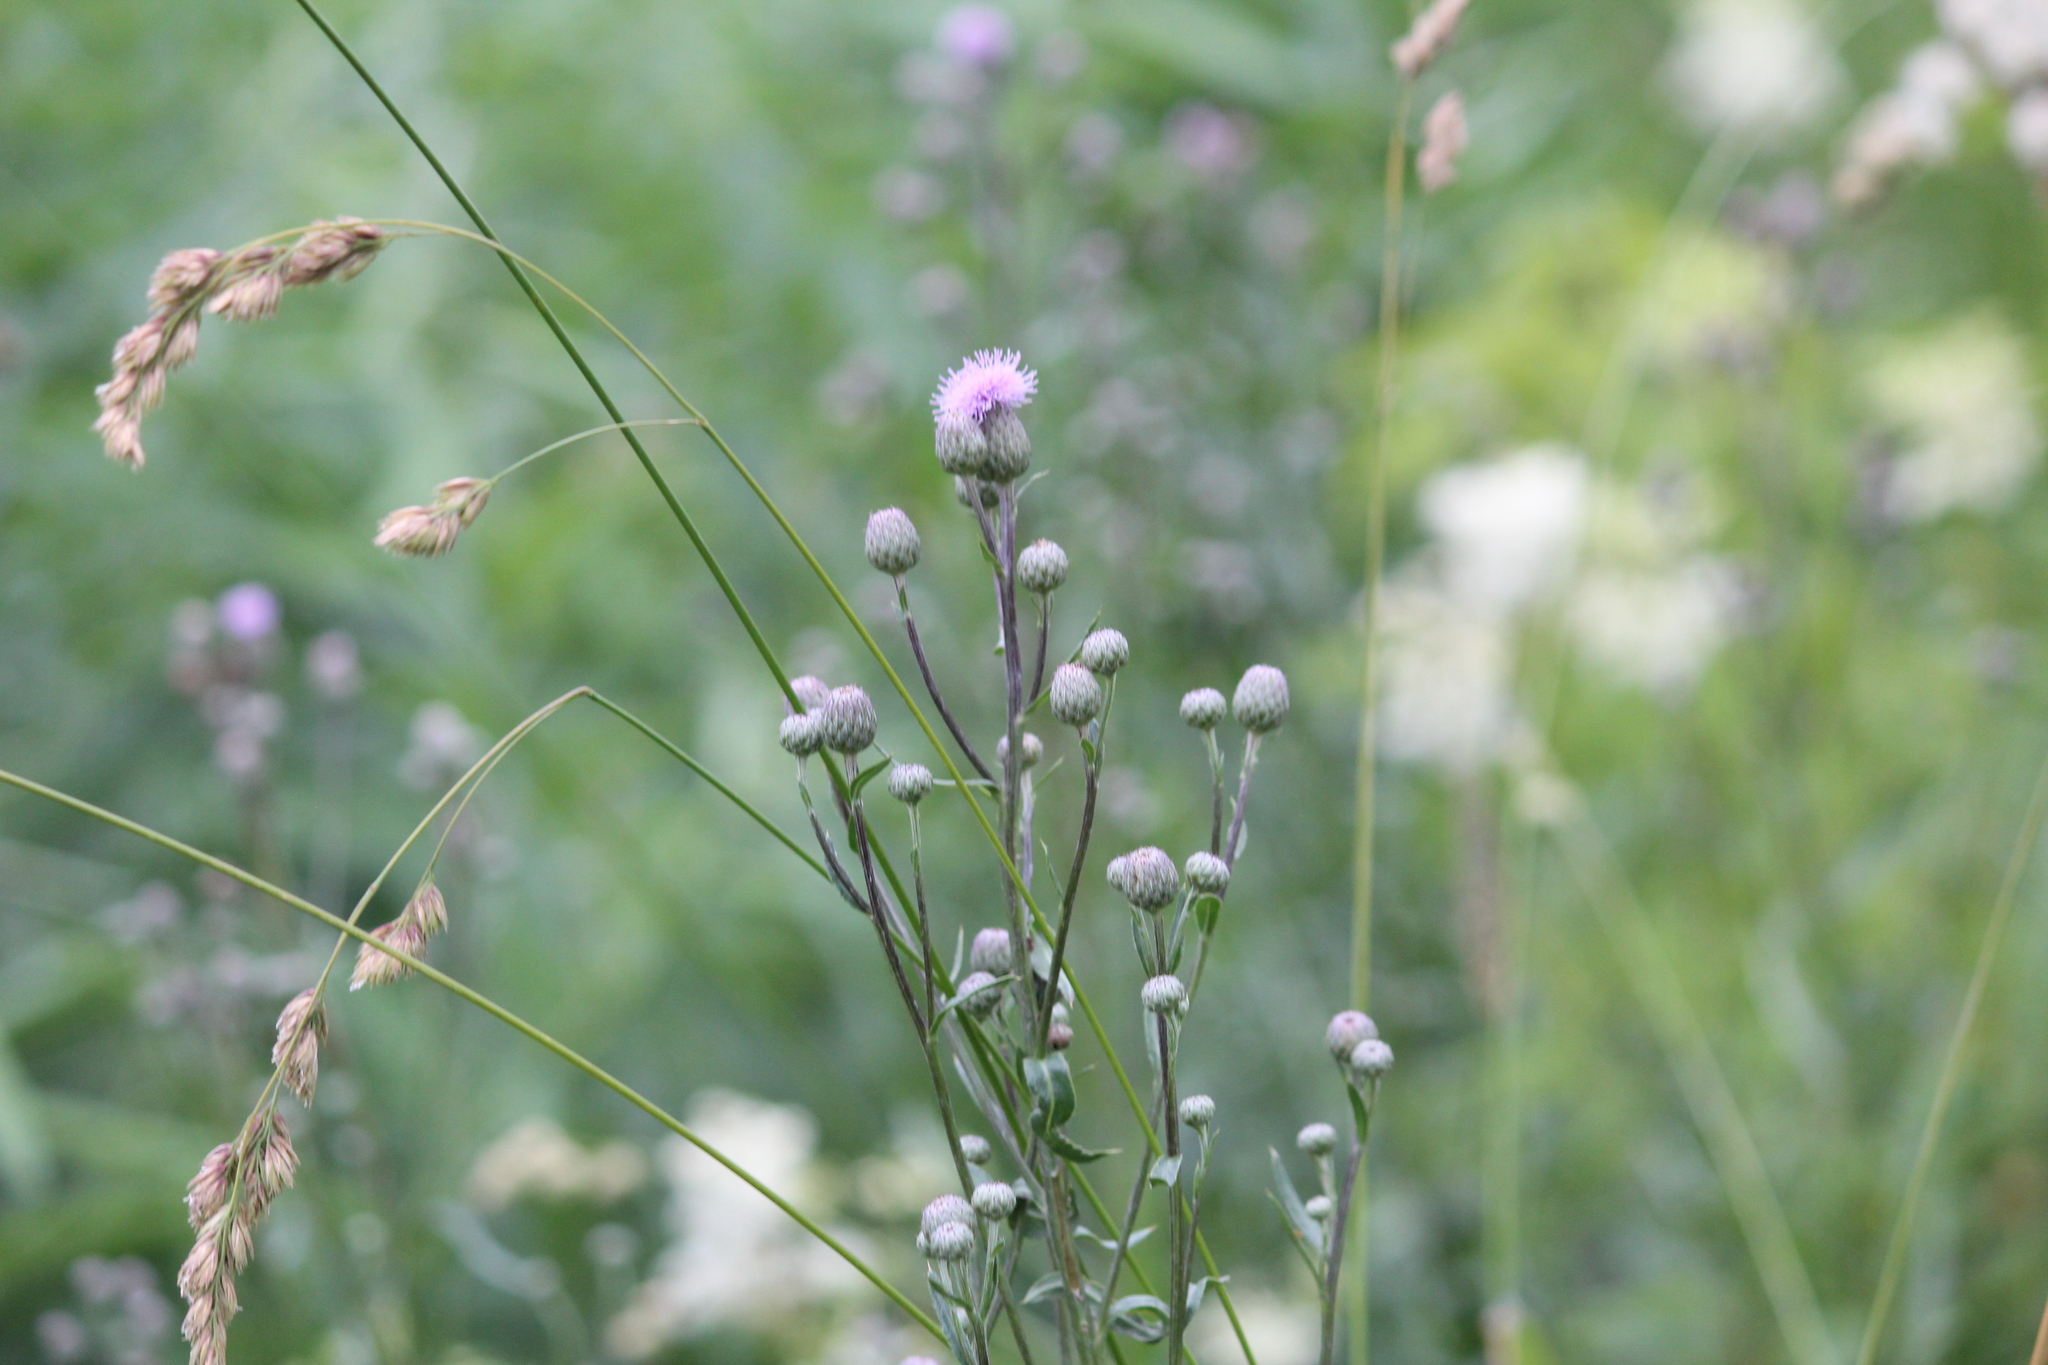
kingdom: Plantae
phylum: Tracheophyta
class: Magnoliopsida
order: Asterales
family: Asteraceae
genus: Cirsium
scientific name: Cirsium arvense
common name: Creeping thistle
